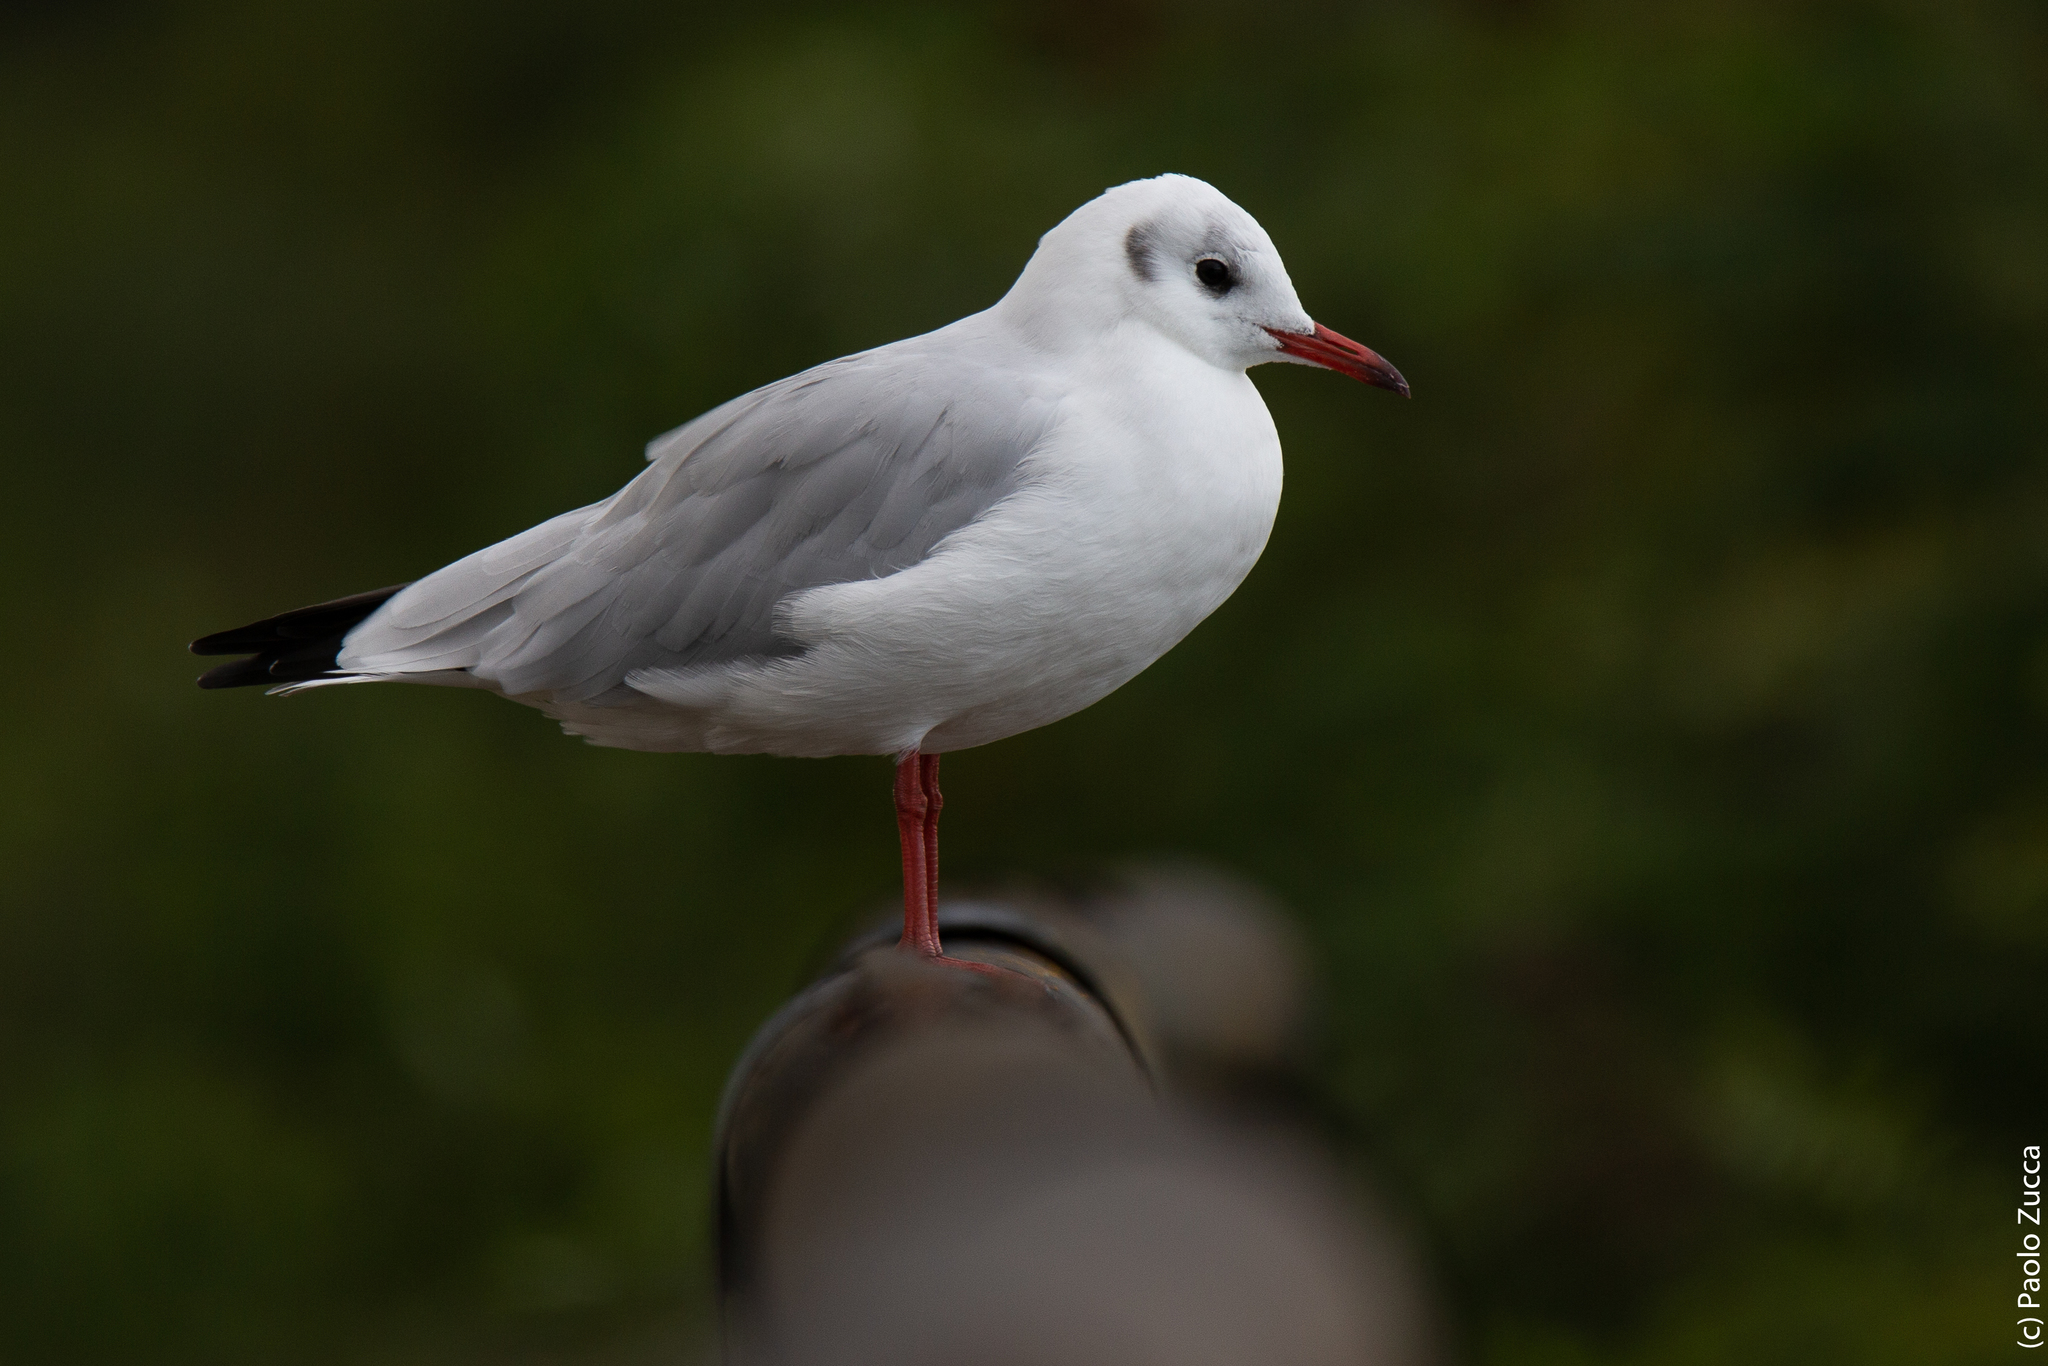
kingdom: Animalia
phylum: Chordata
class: Aves
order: Charadriiformes
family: Laridae
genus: Chroicocephalus
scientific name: Chroicocephalus ridibundus
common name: Black-headed gull
